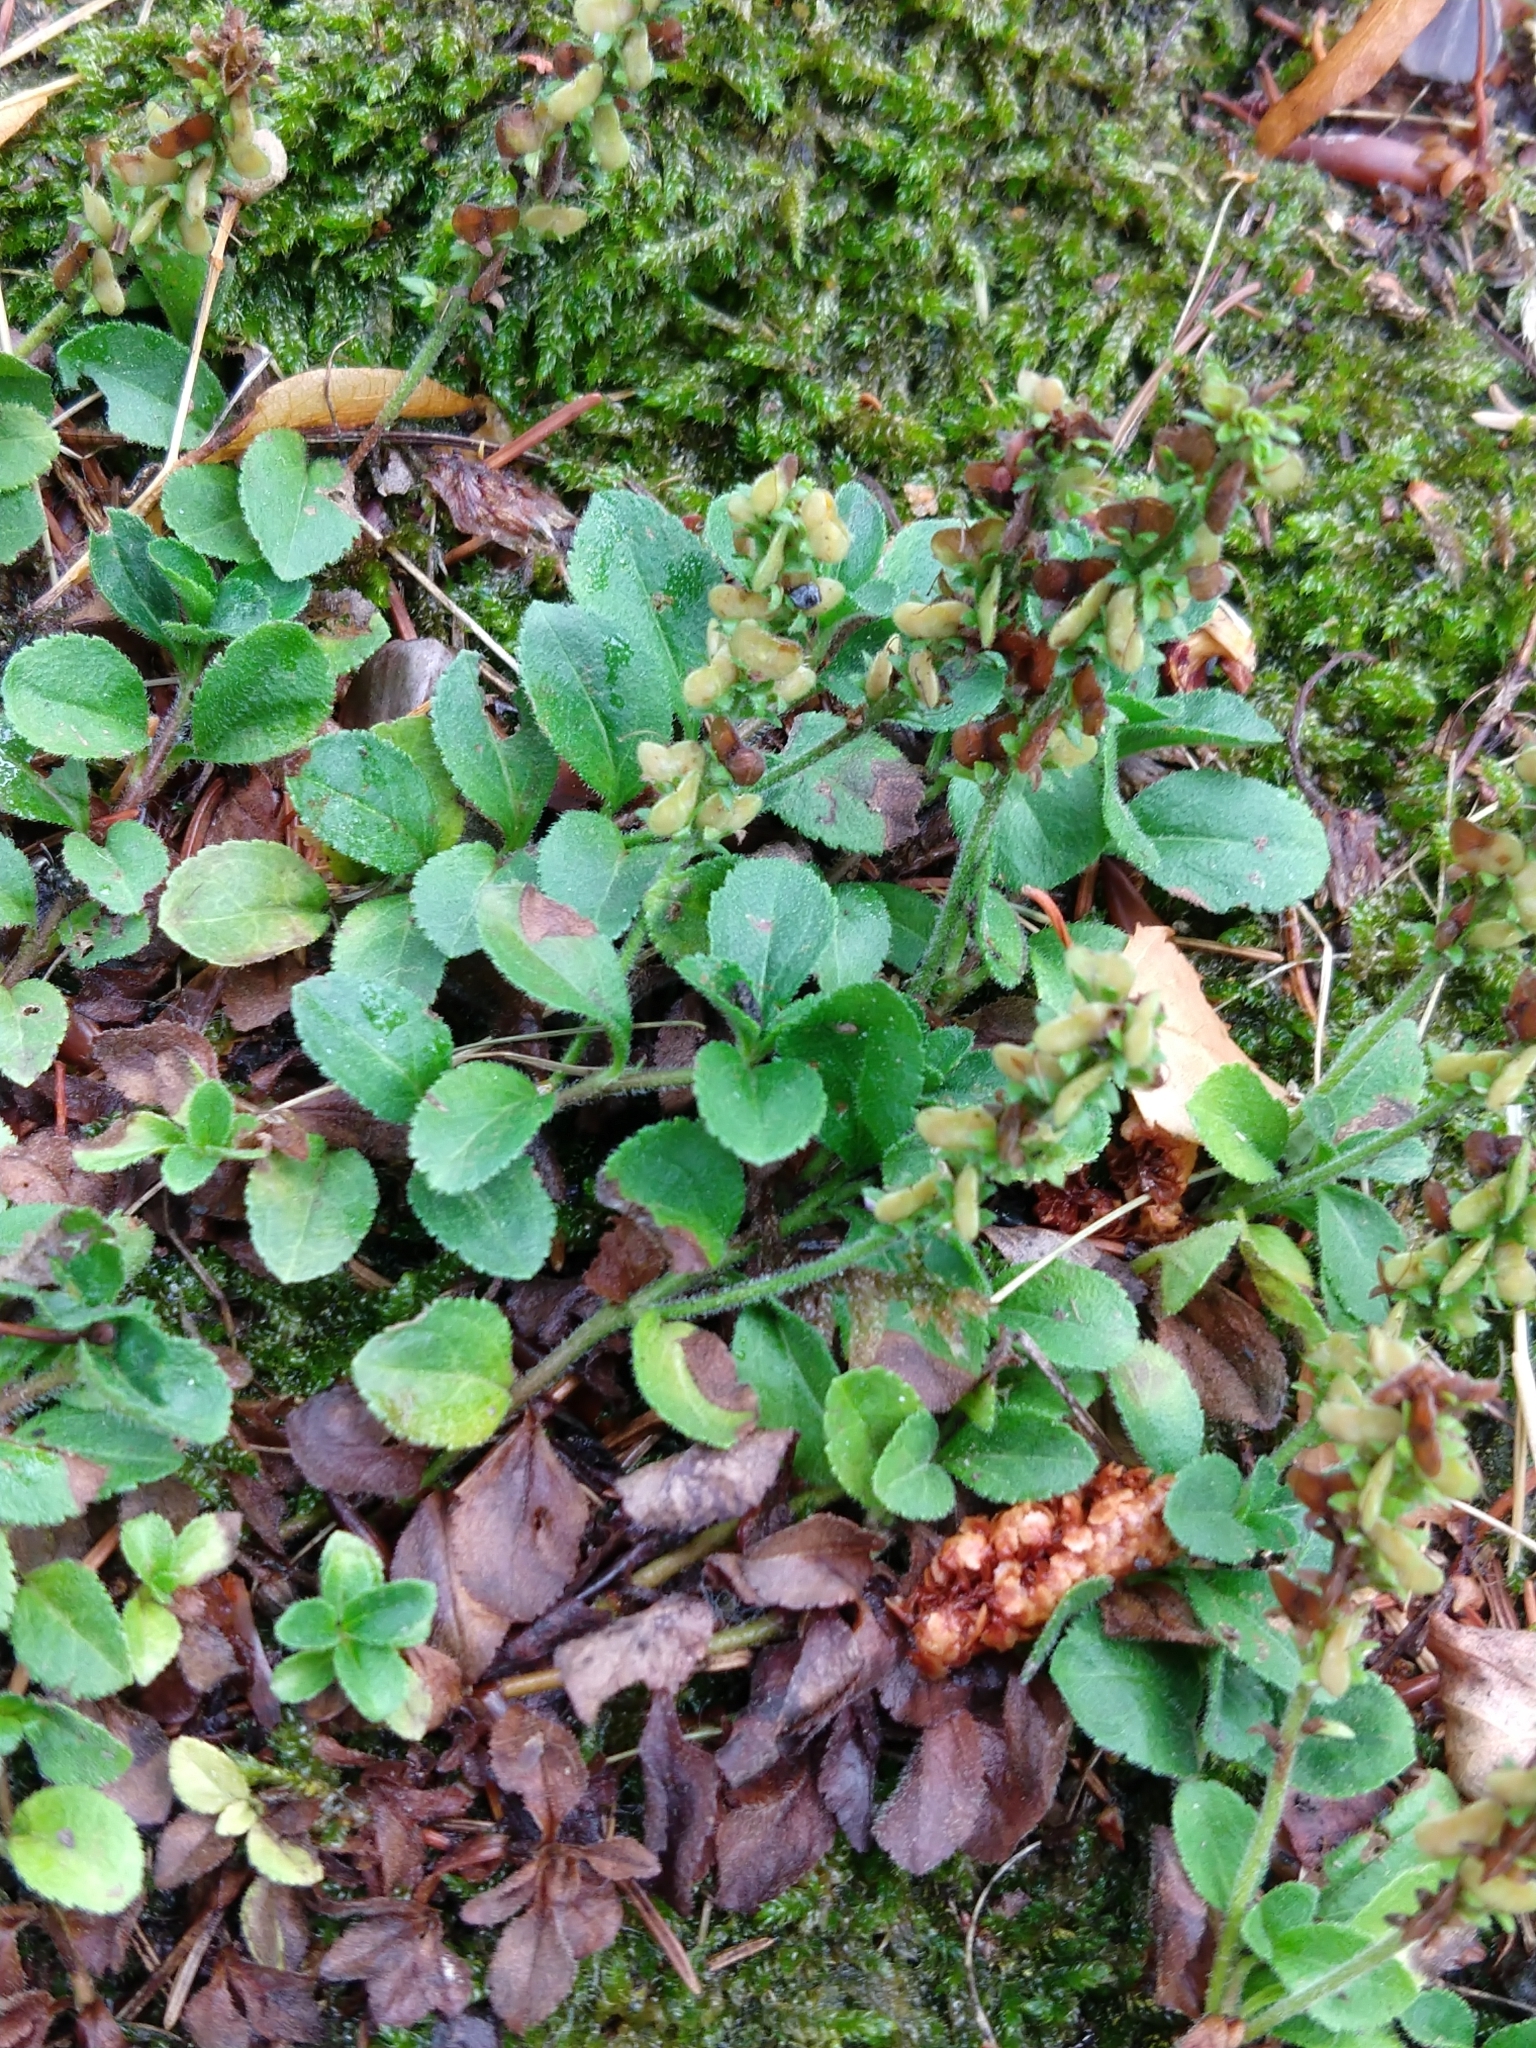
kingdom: Plantae
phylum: Tracheophyta
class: Magnoliopsida
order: Lamiales
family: Plantaginaceae
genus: Veronica
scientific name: Veronica officinalis
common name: Common speedwell
